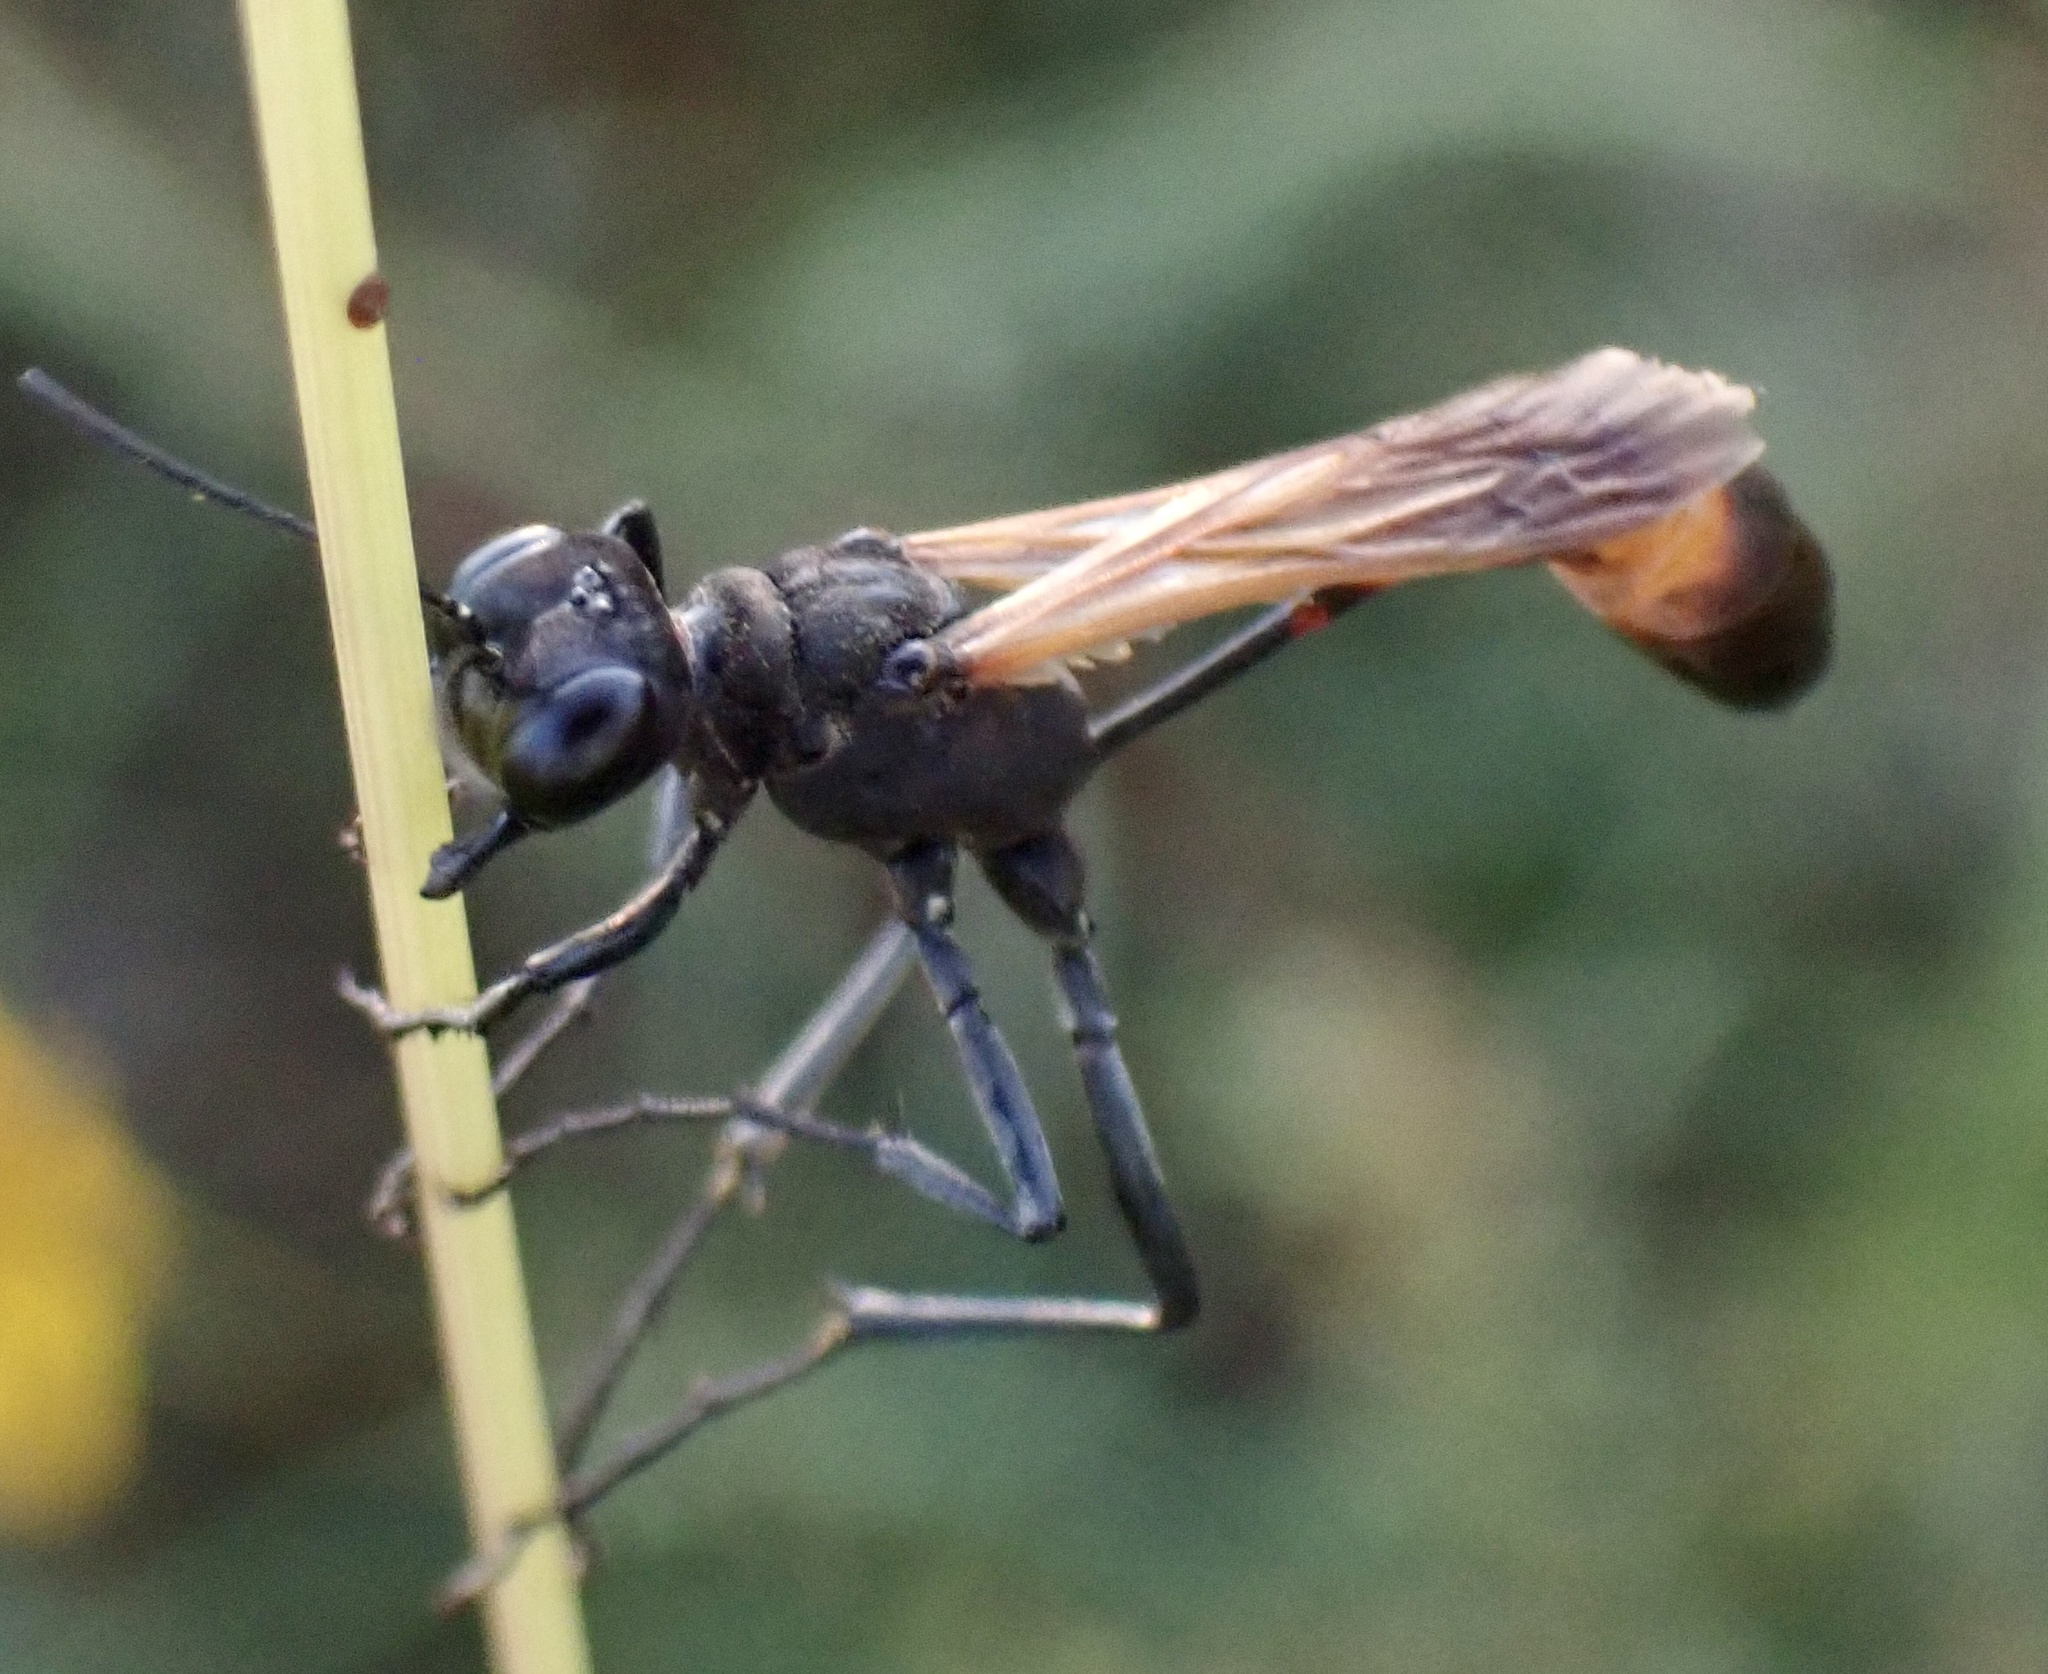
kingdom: Animalia
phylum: Arthropoda
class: Insecta
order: Hymenoptera
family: Sphecidae
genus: Ammophila
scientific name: Ammophila pictipennis
